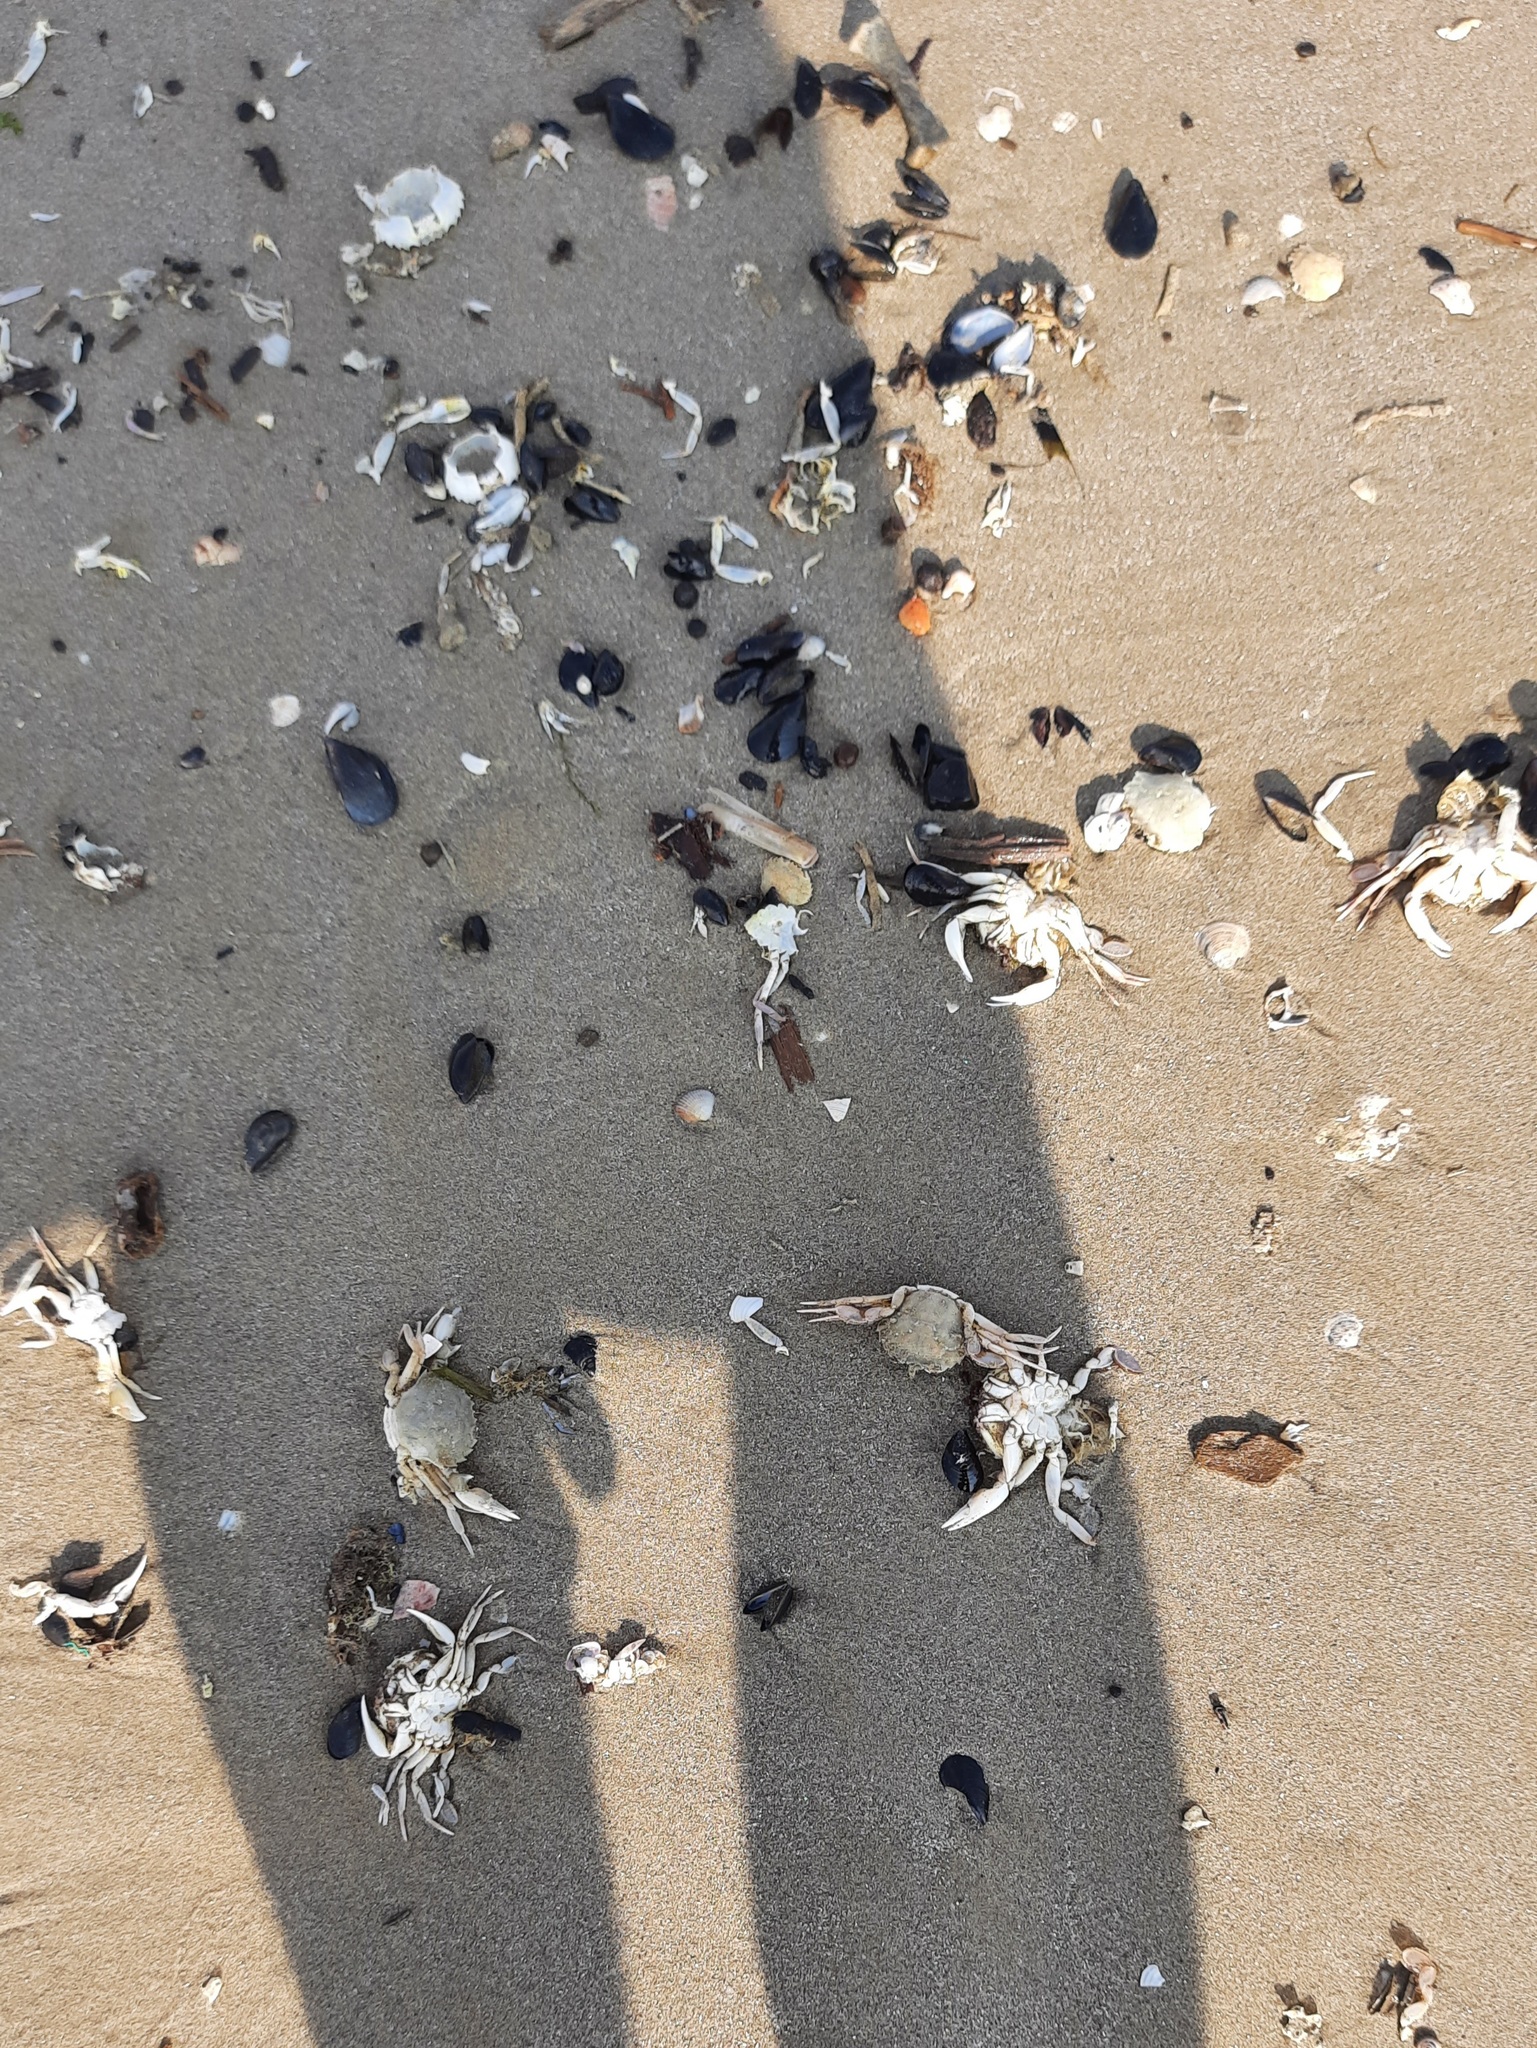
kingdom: Animalia
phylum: Arthropoda
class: Malacostraca
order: Decapoda
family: Polybiidae
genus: Liocarcinus
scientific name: Liocarcinus vernalis
